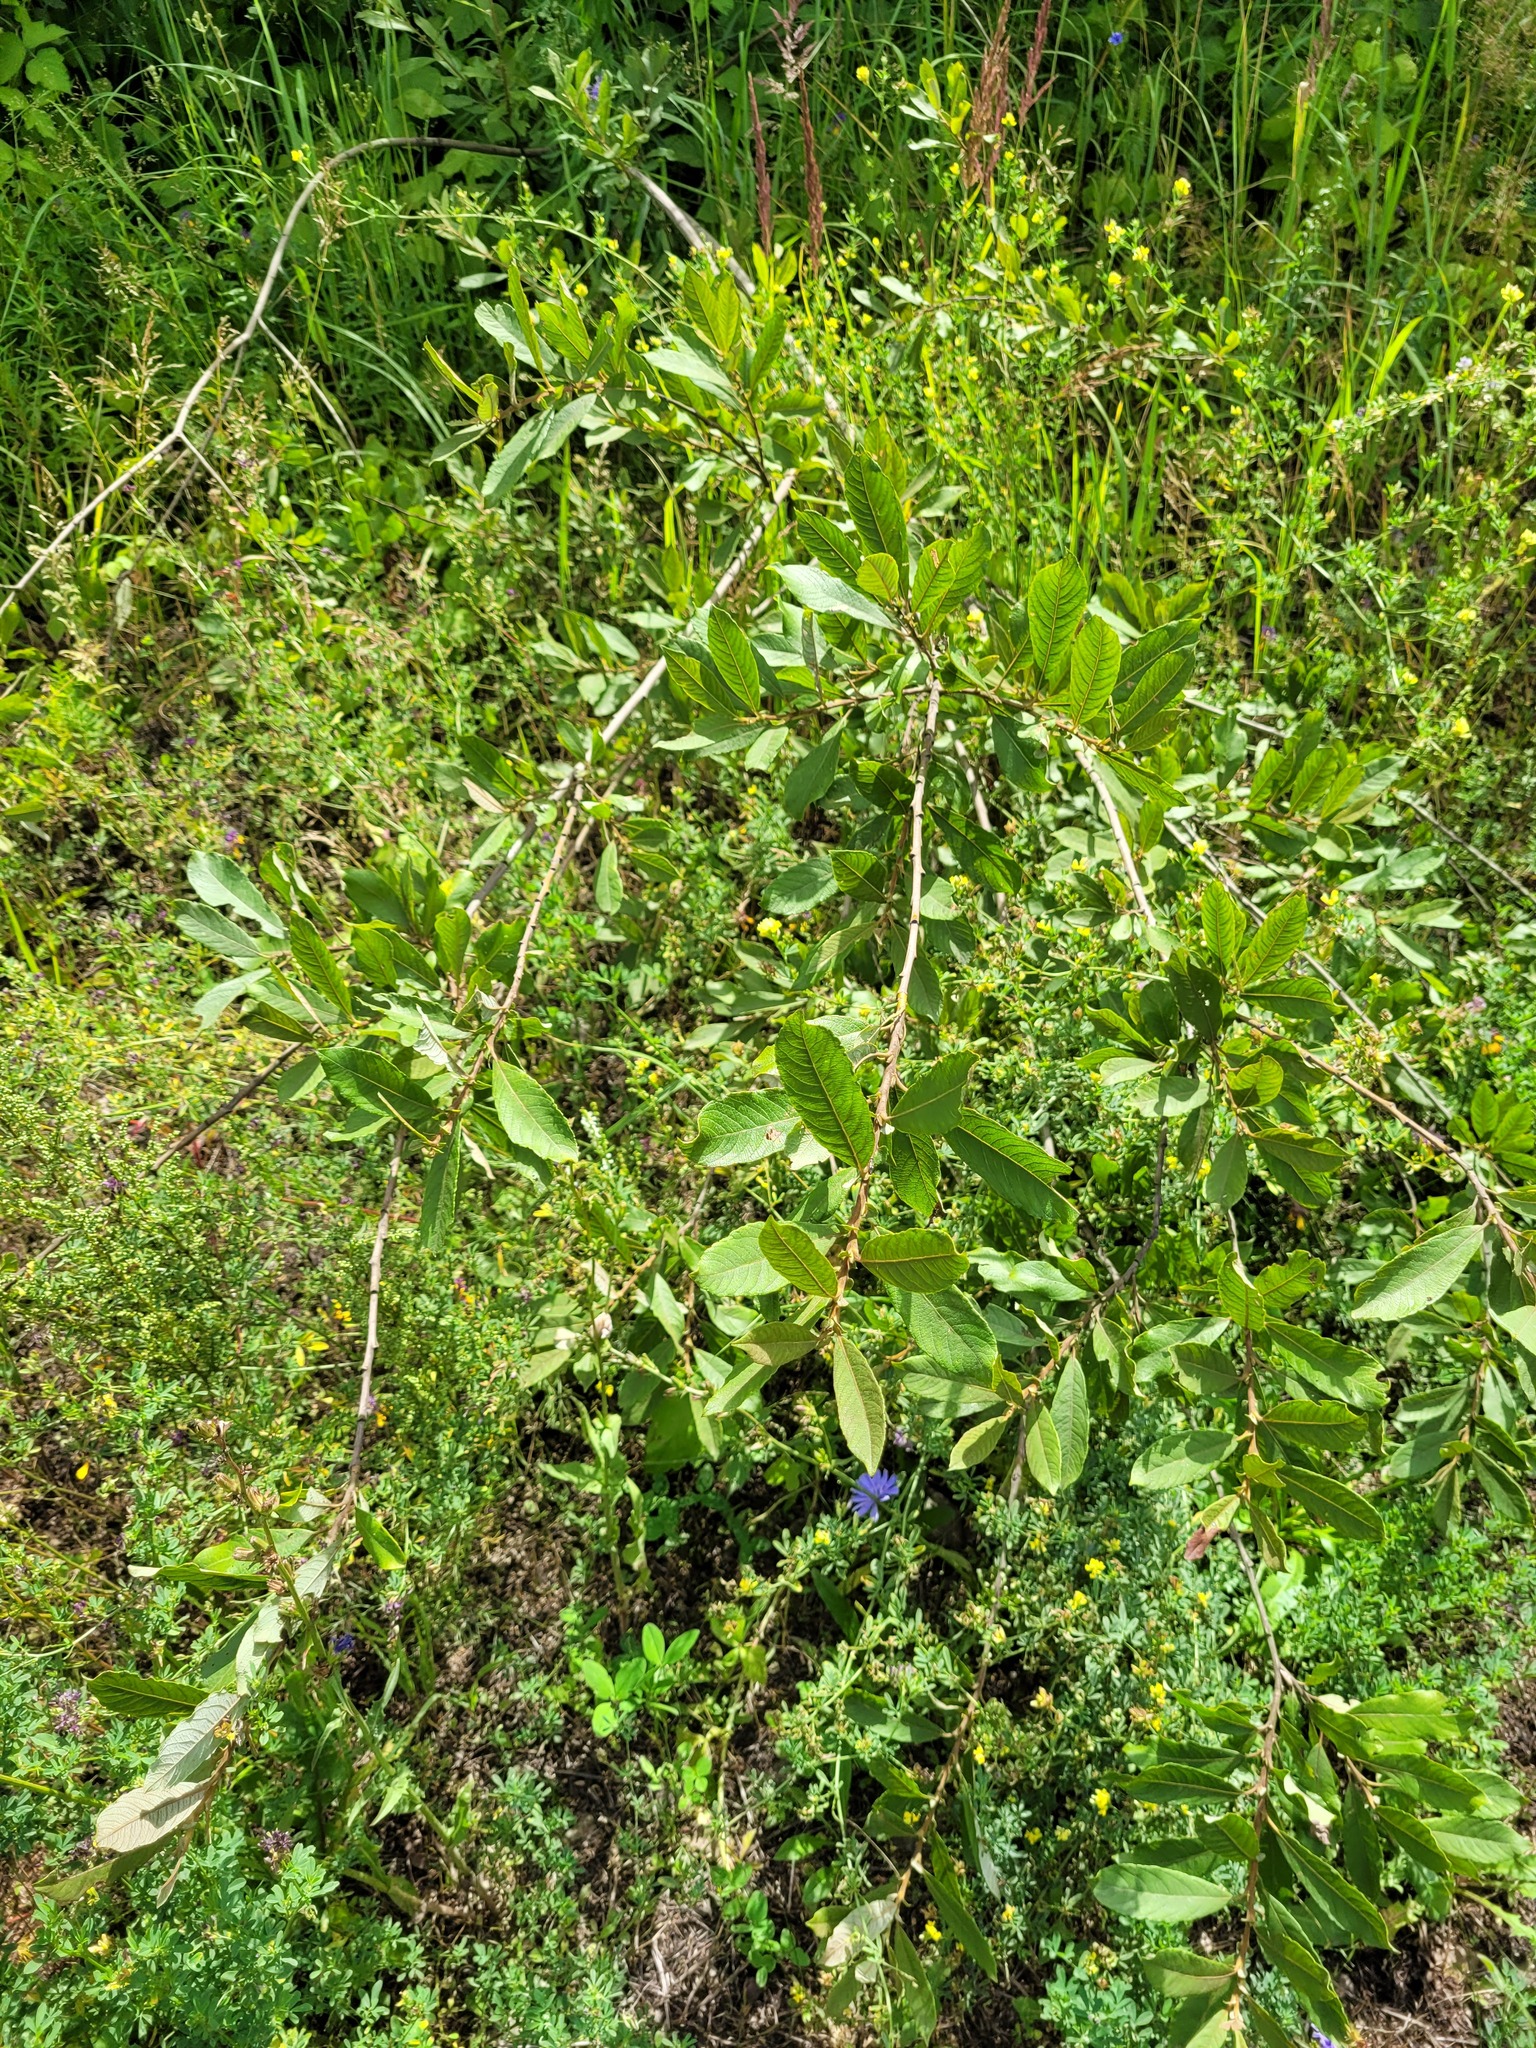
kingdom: Plantae
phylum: Tracheophyta
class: Magnoliopsida
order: Malpighiales
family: Salicaceae
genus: Salix
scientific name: Salix cinerea
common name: Common sallow
